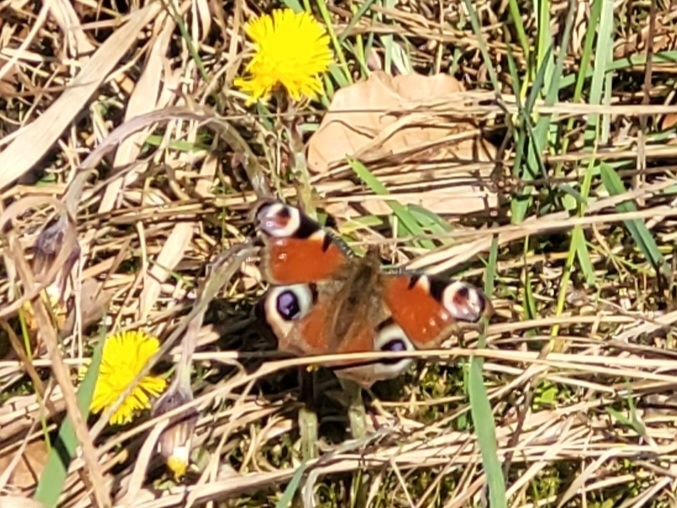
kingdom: Animalia
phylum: Arthropoda
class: Insecta
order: Lepidoptera
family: Nymphalidae
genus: Aglais
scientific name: Aglais io
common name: Peacock
